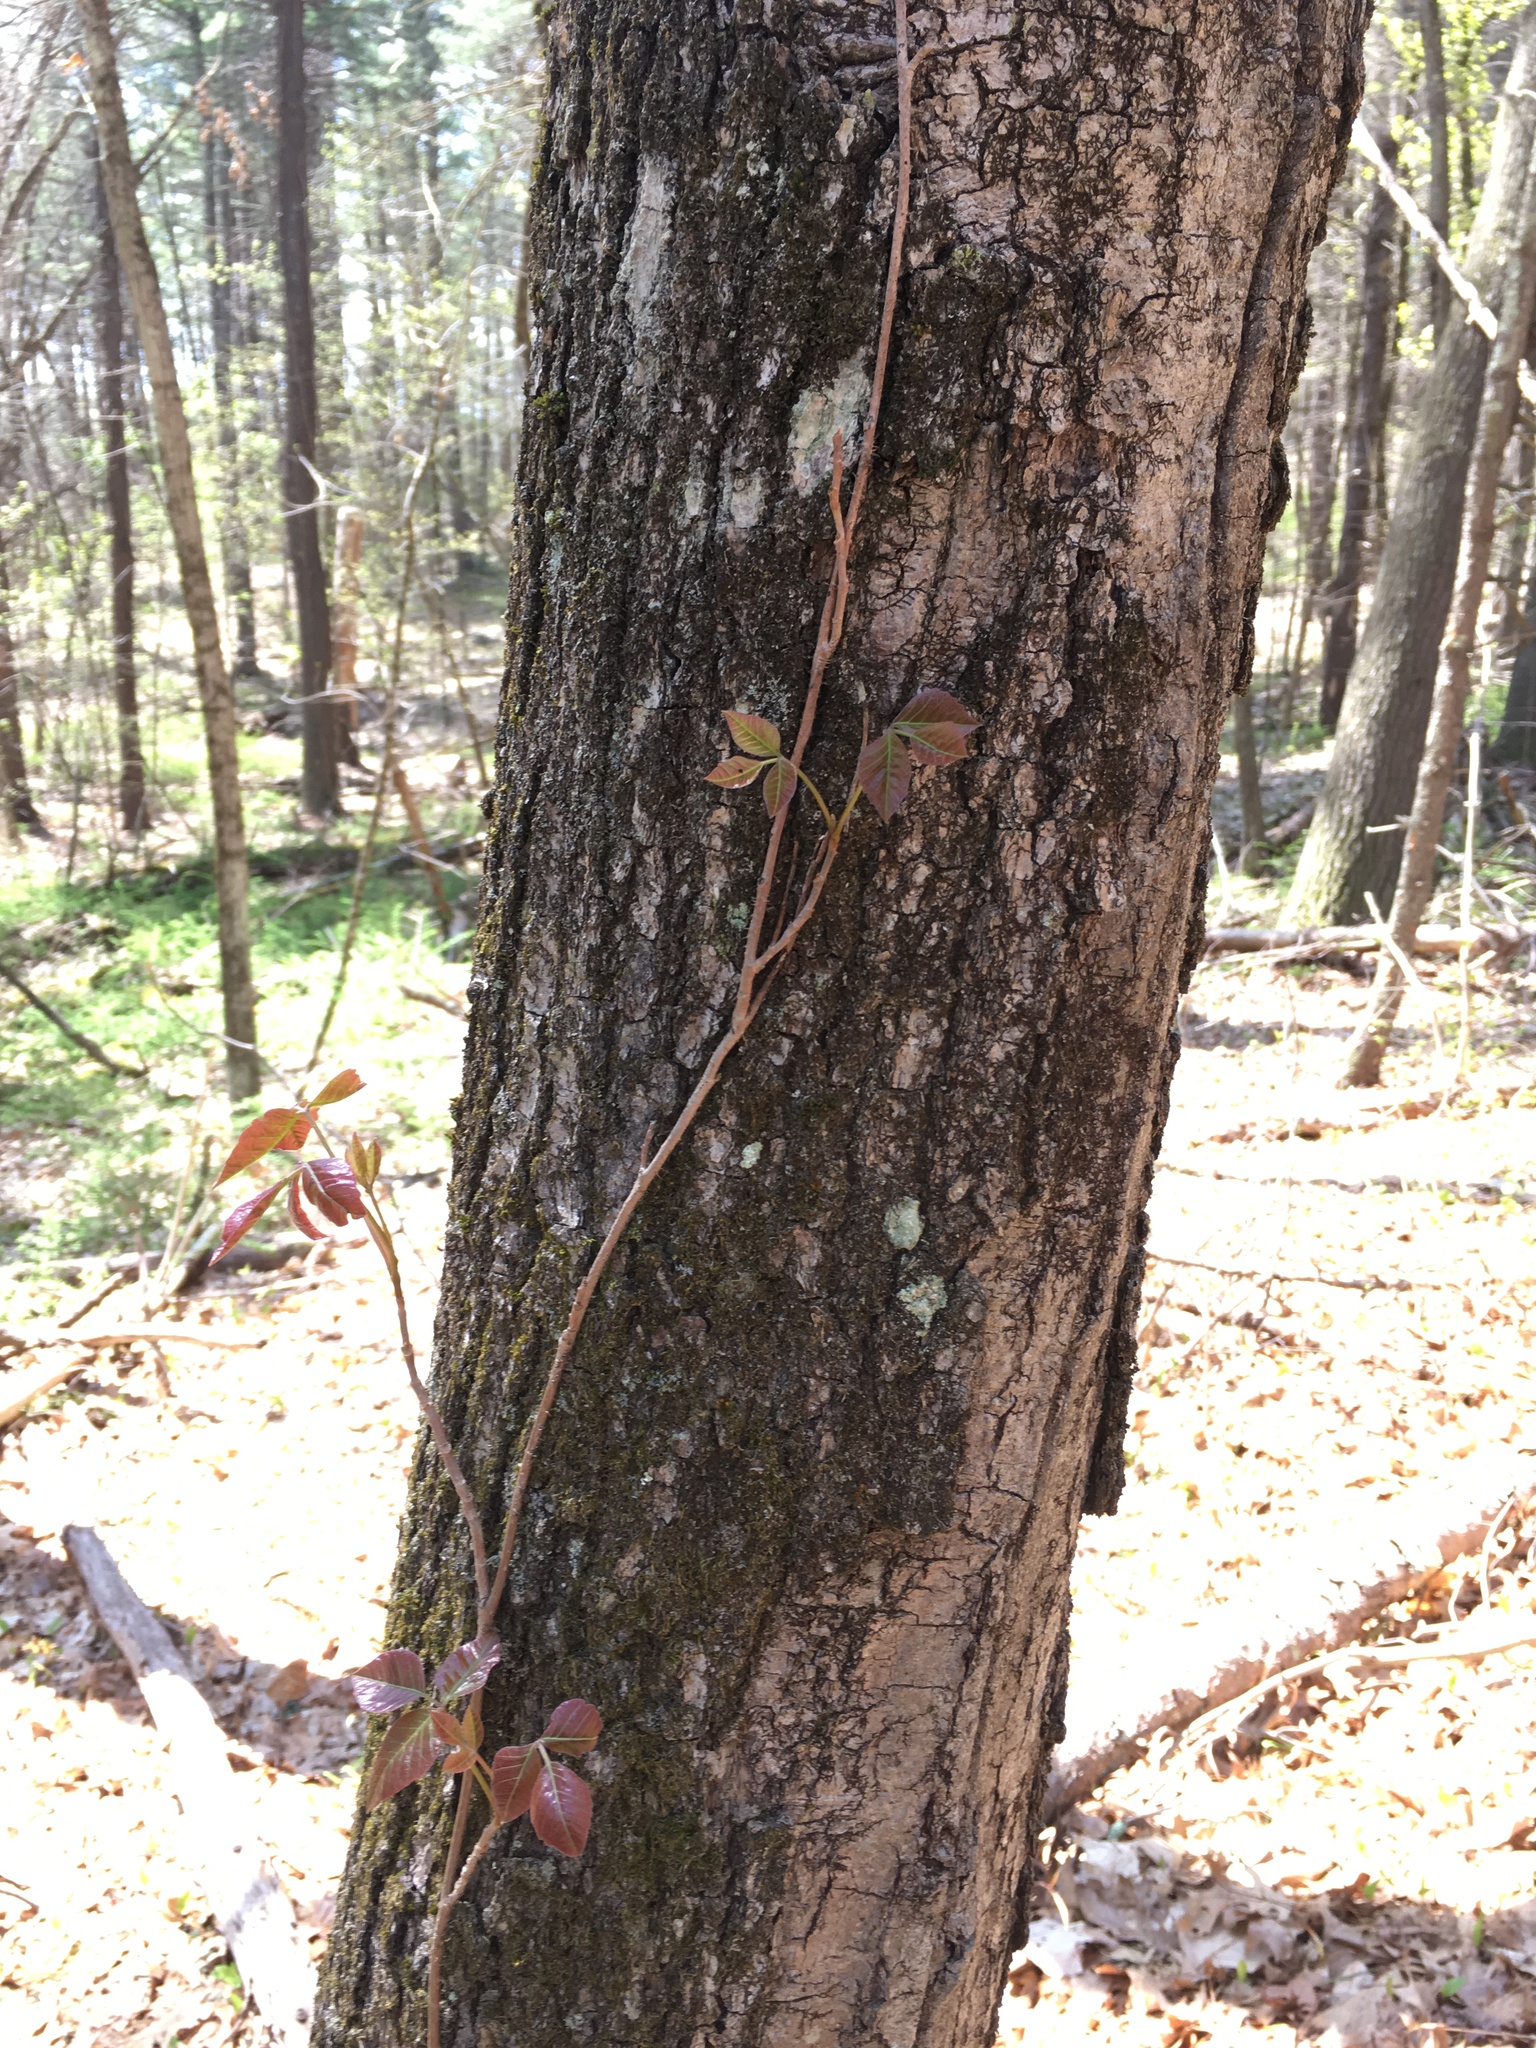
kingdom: Plantae
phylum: Tracheophyta
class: Magnoliopsida
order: Sapindales
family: Anacardiaceae
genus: Toxicodendron
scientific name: Toxicodendron radicans
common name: Poison ivy
